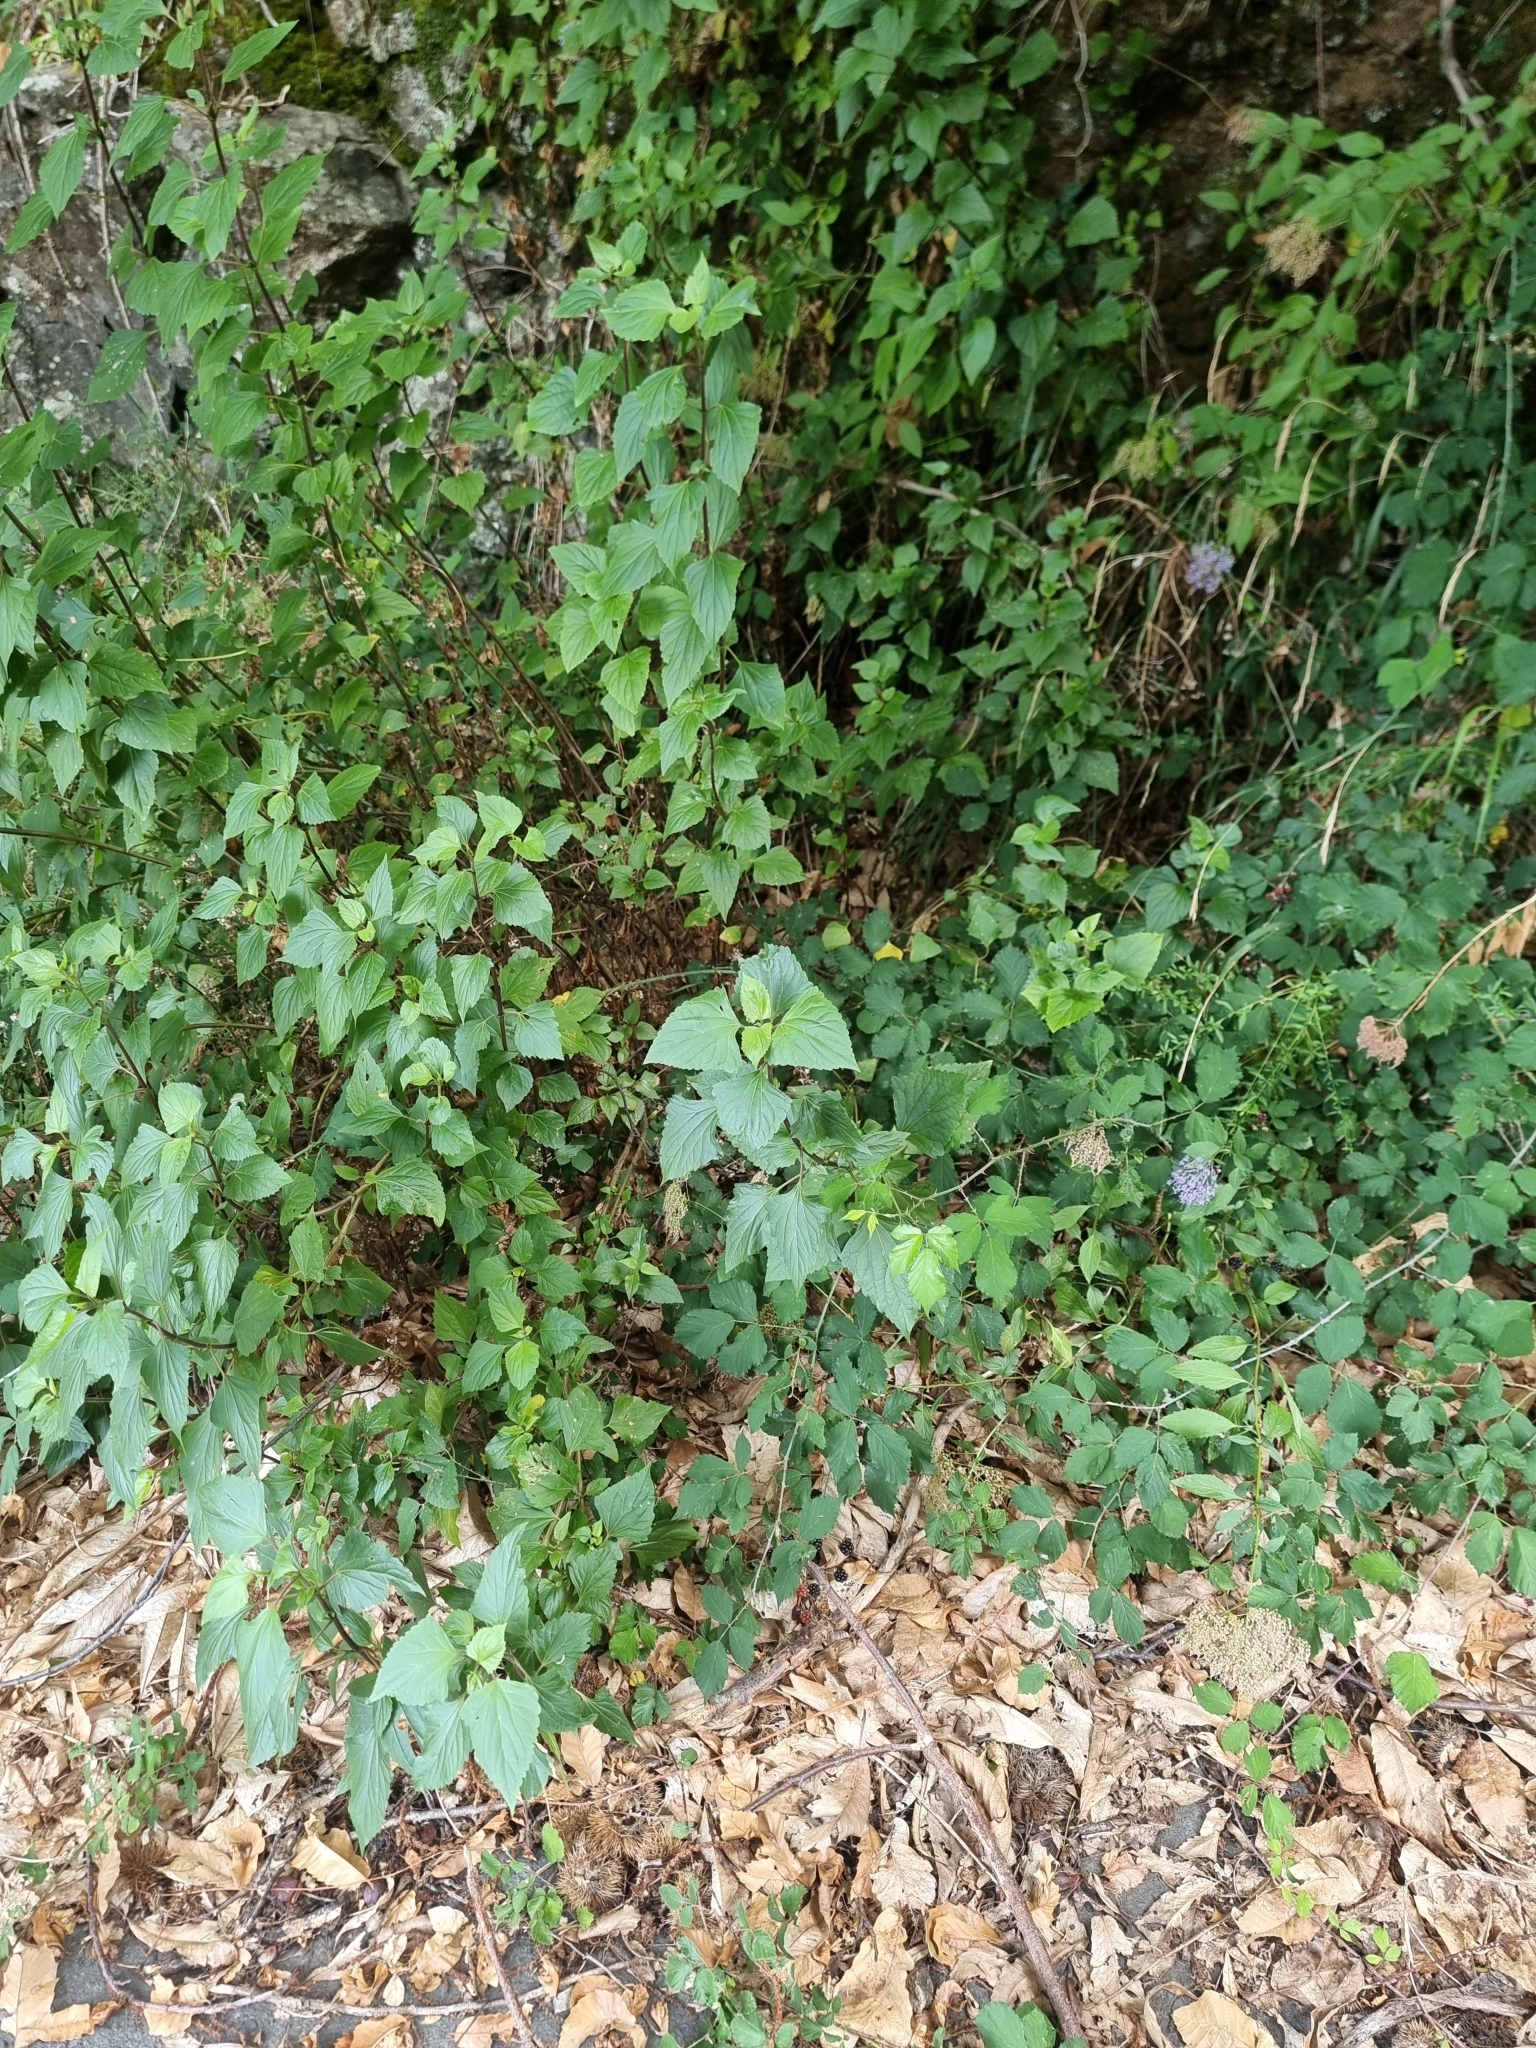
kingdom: Plantae
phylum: Tracheophyta
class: Magnoliopsida
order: Asterales
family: Asteraceae
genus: Ageratina
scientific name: Ageratina adenophora
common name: Sticky snakeroot
